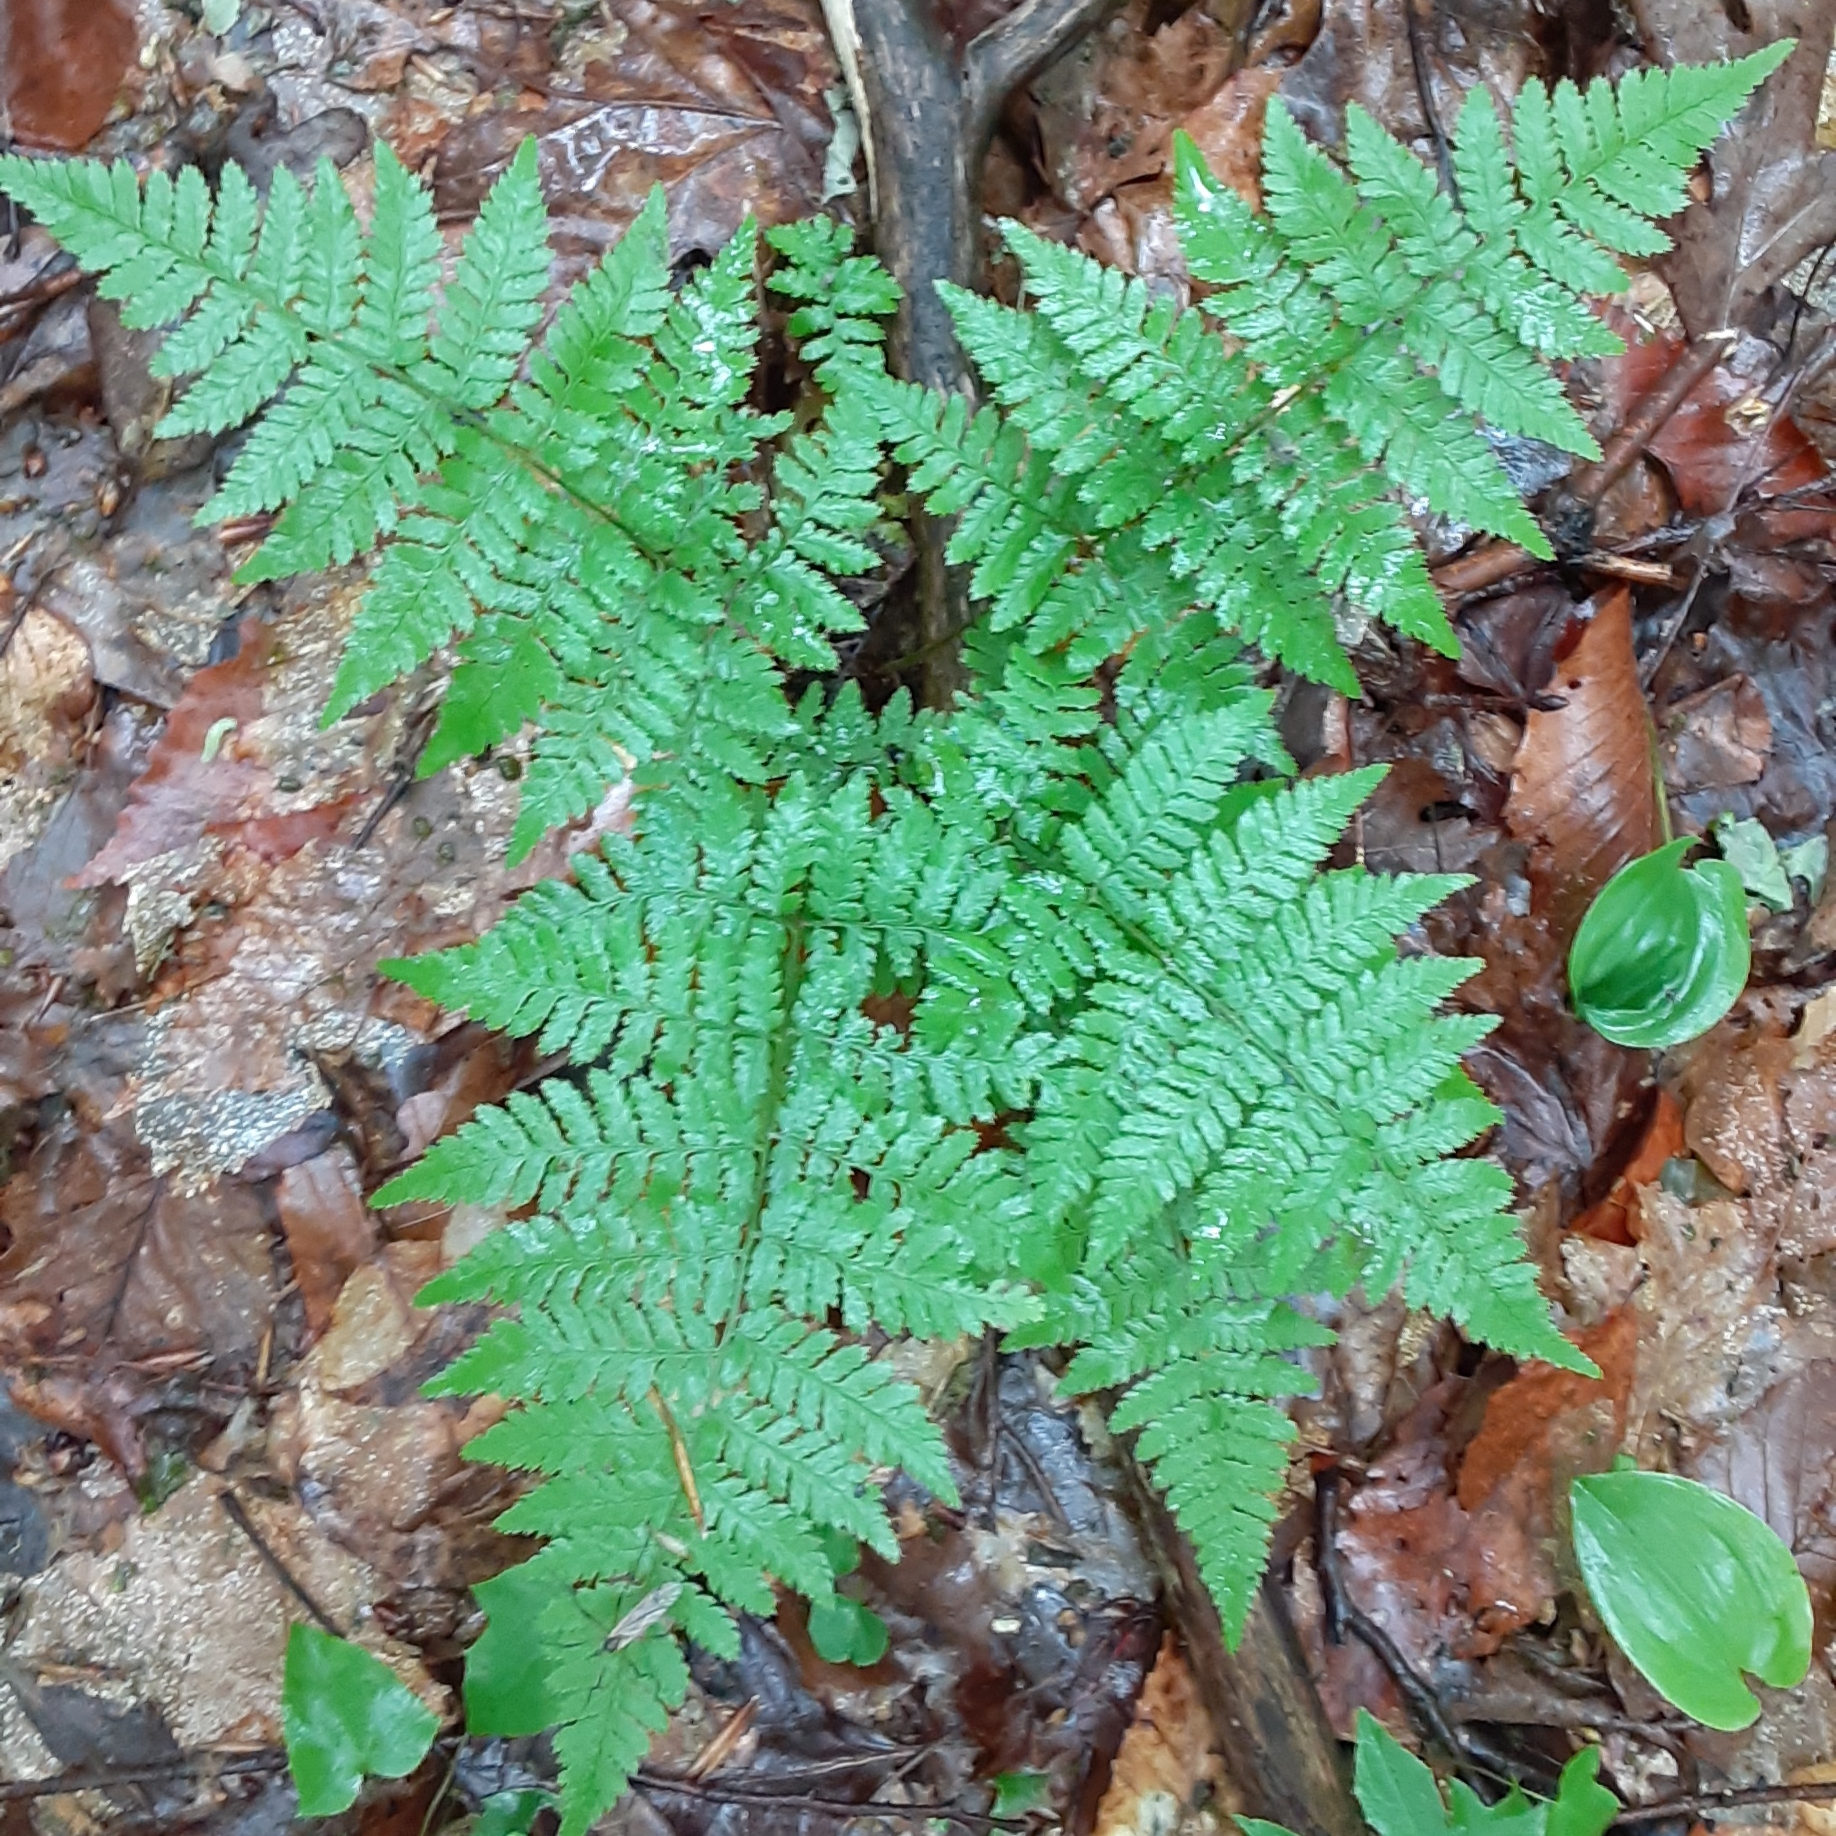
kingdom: Plantae
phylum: Tracheophyta
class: Polypodiopsida
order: Polypodiales
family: Dryopteridaceae
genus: Dryopteris
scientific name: Dryopteris intermedia
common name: Evergreen wood fern
